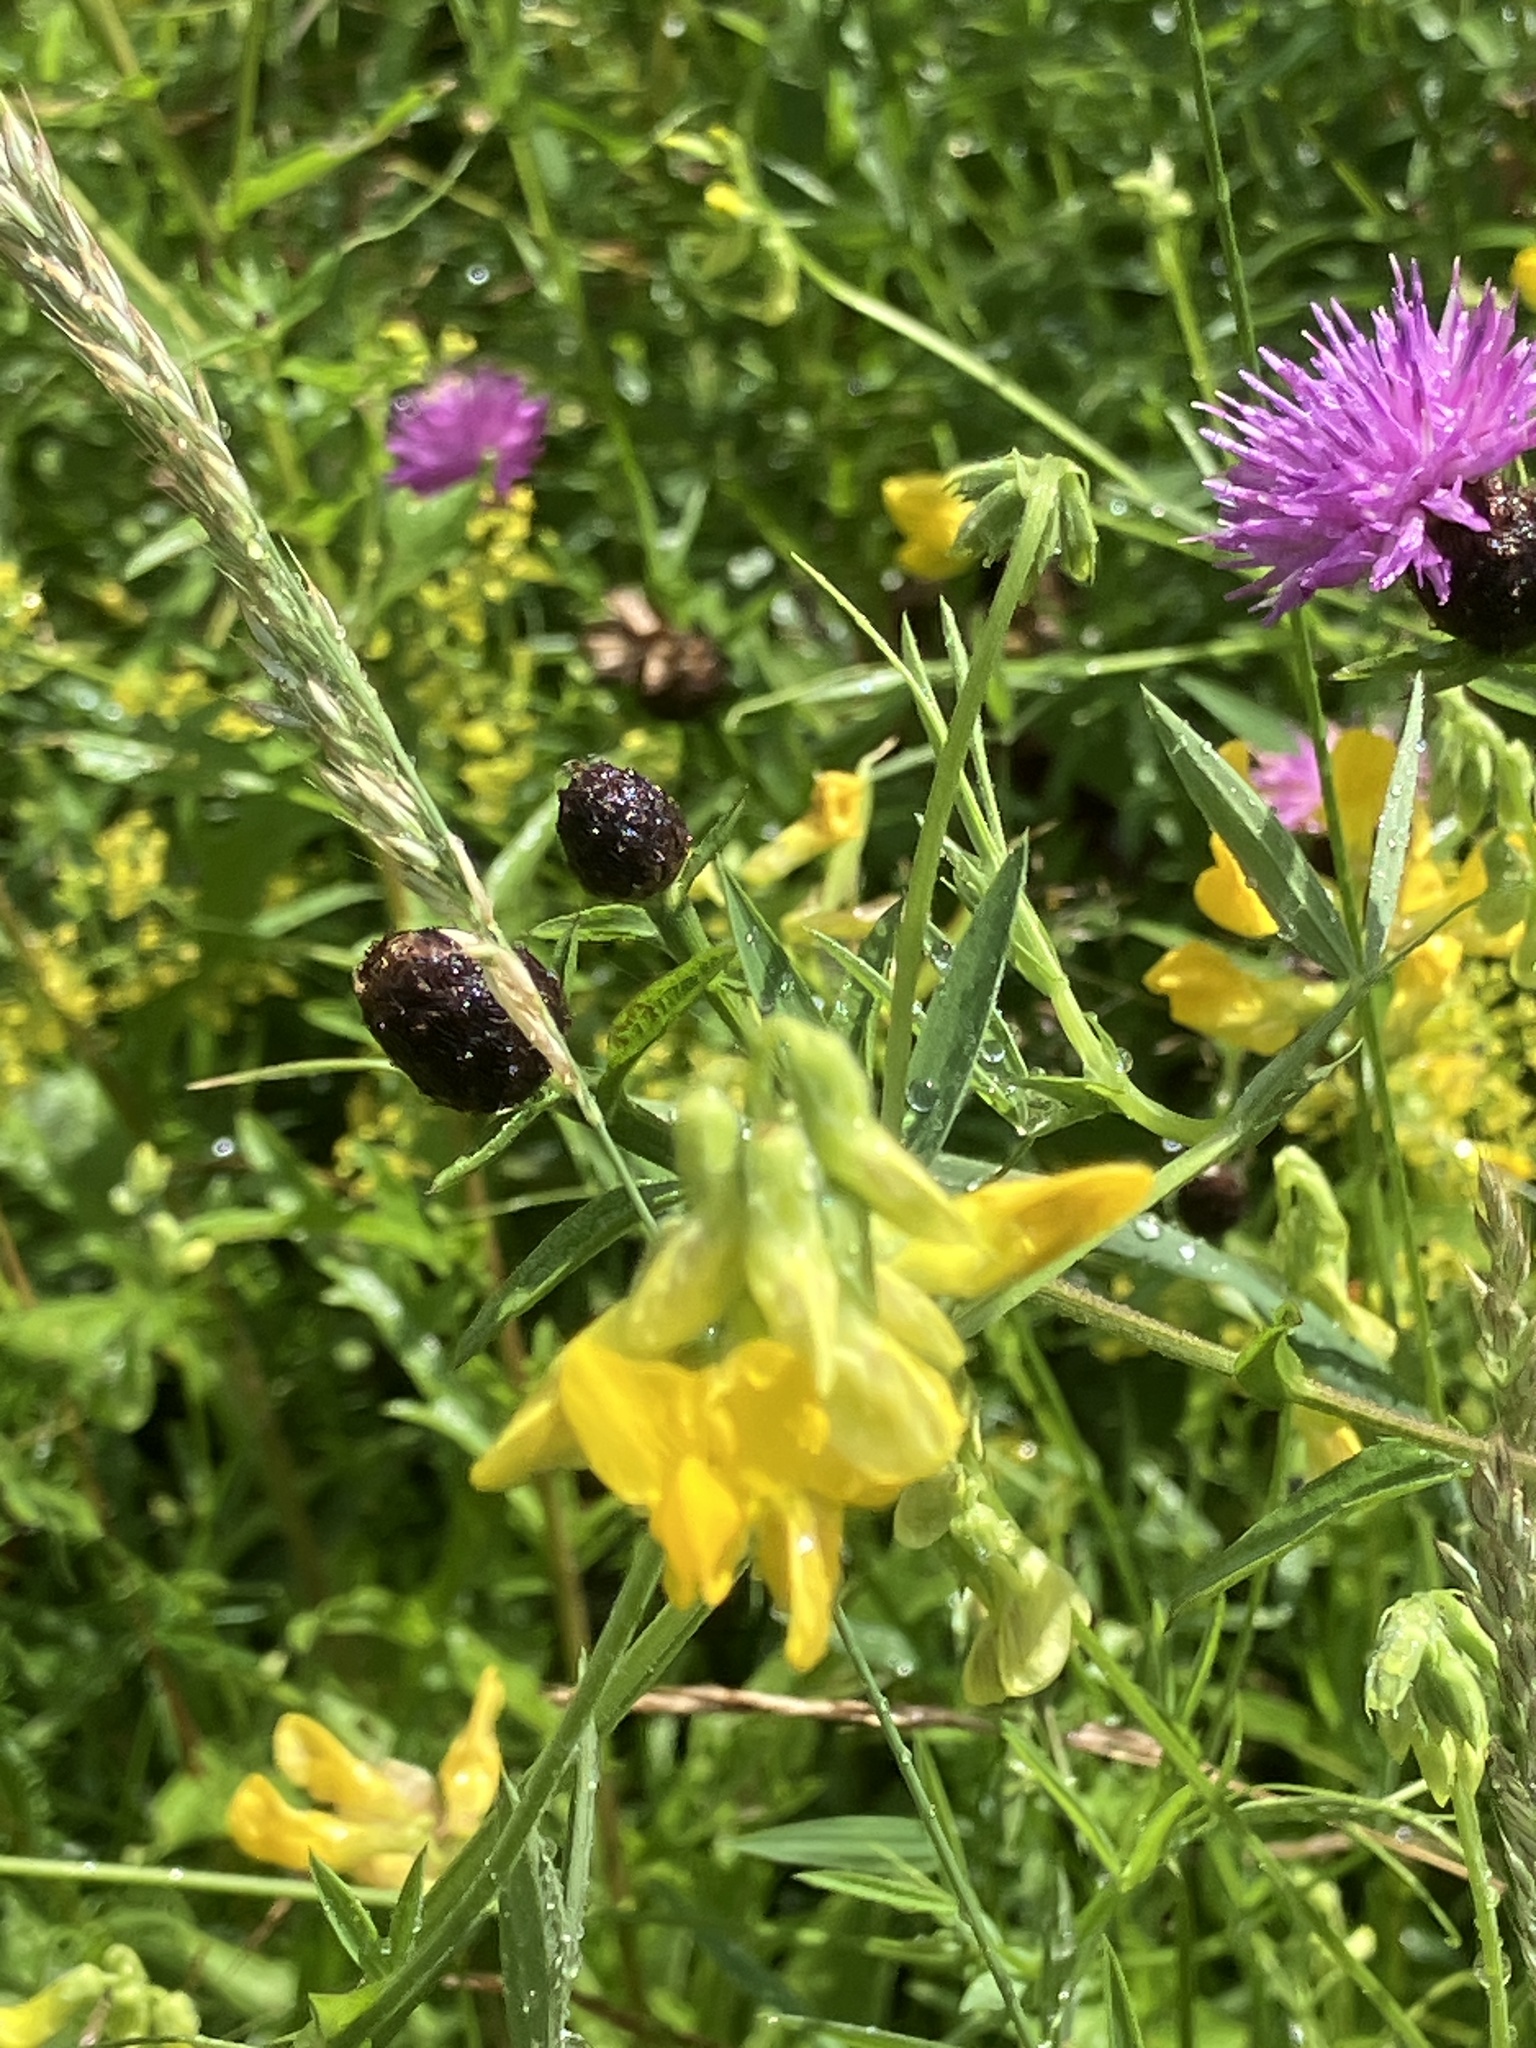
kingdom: Plantae
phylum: Tracheophyta
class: Magnoliopsida
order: Fabales
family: Fabaceae
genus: Lathyrus
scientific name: Lathyrus pratensis
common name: Meadow vetchling
